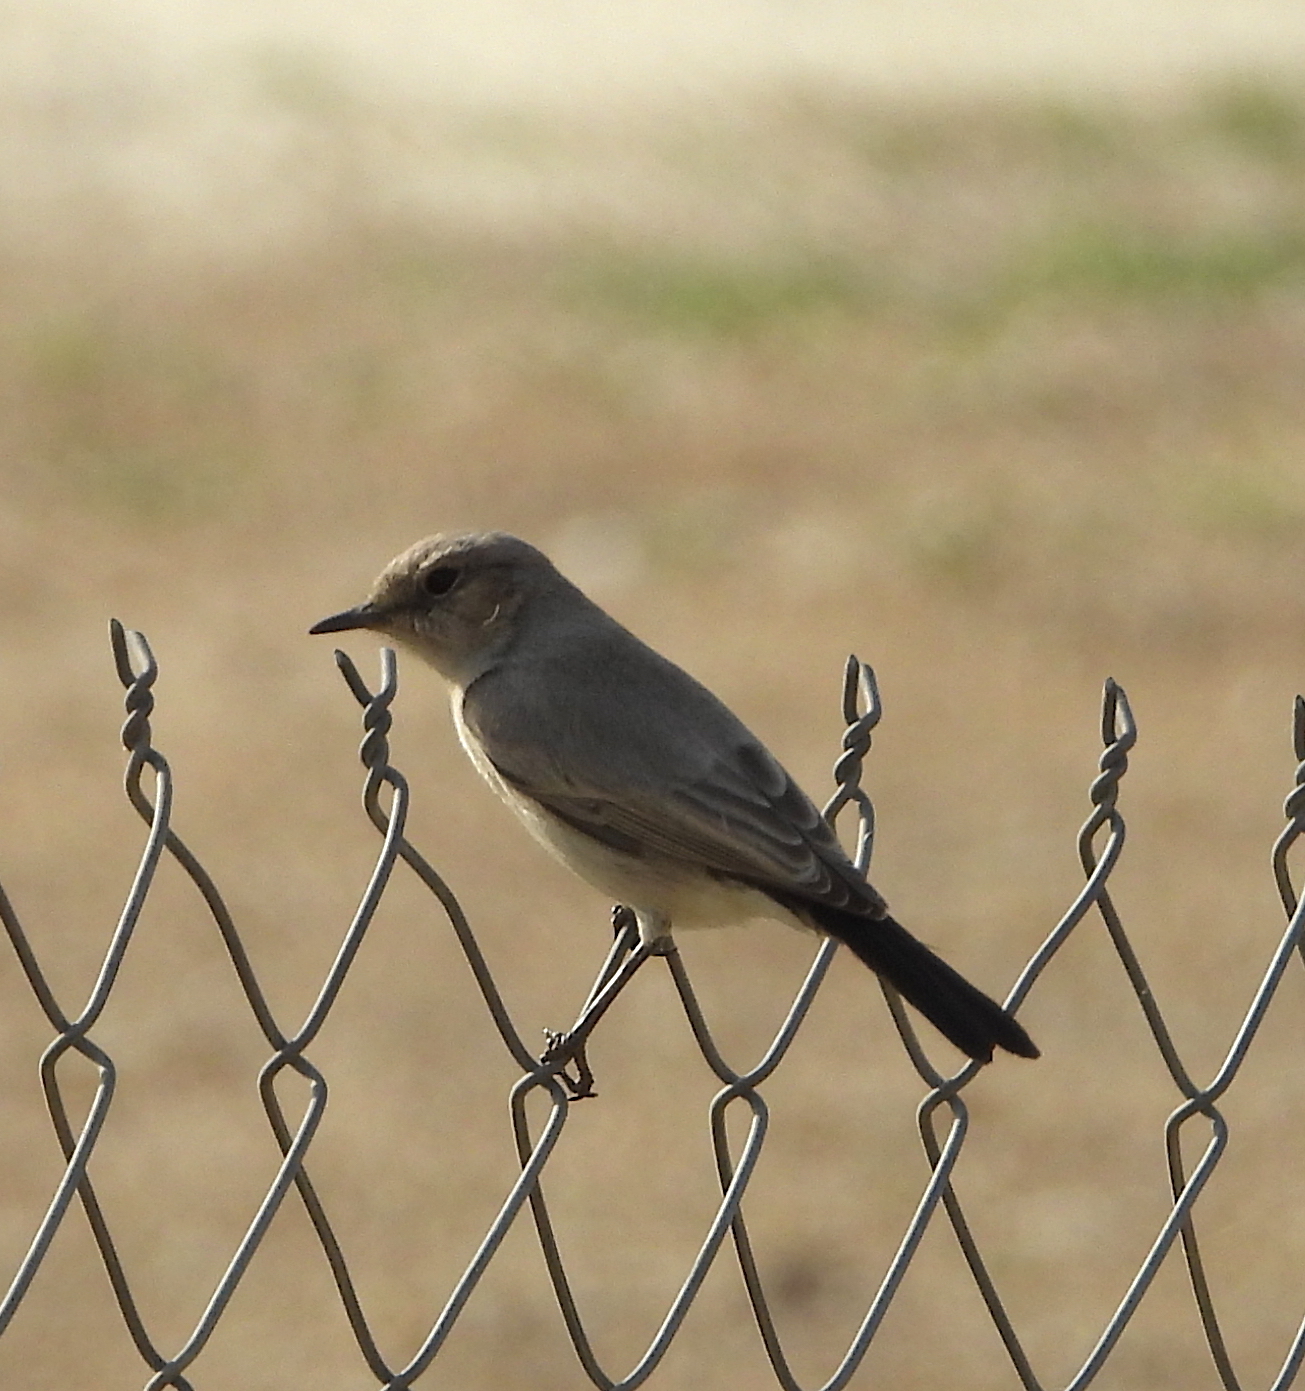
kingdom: Animalia
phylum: Chordata
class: Aves
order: Passeriformes
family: Muscicapidae
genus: Oenanthe
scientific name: Oenanthe melanura
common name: Blackstart
